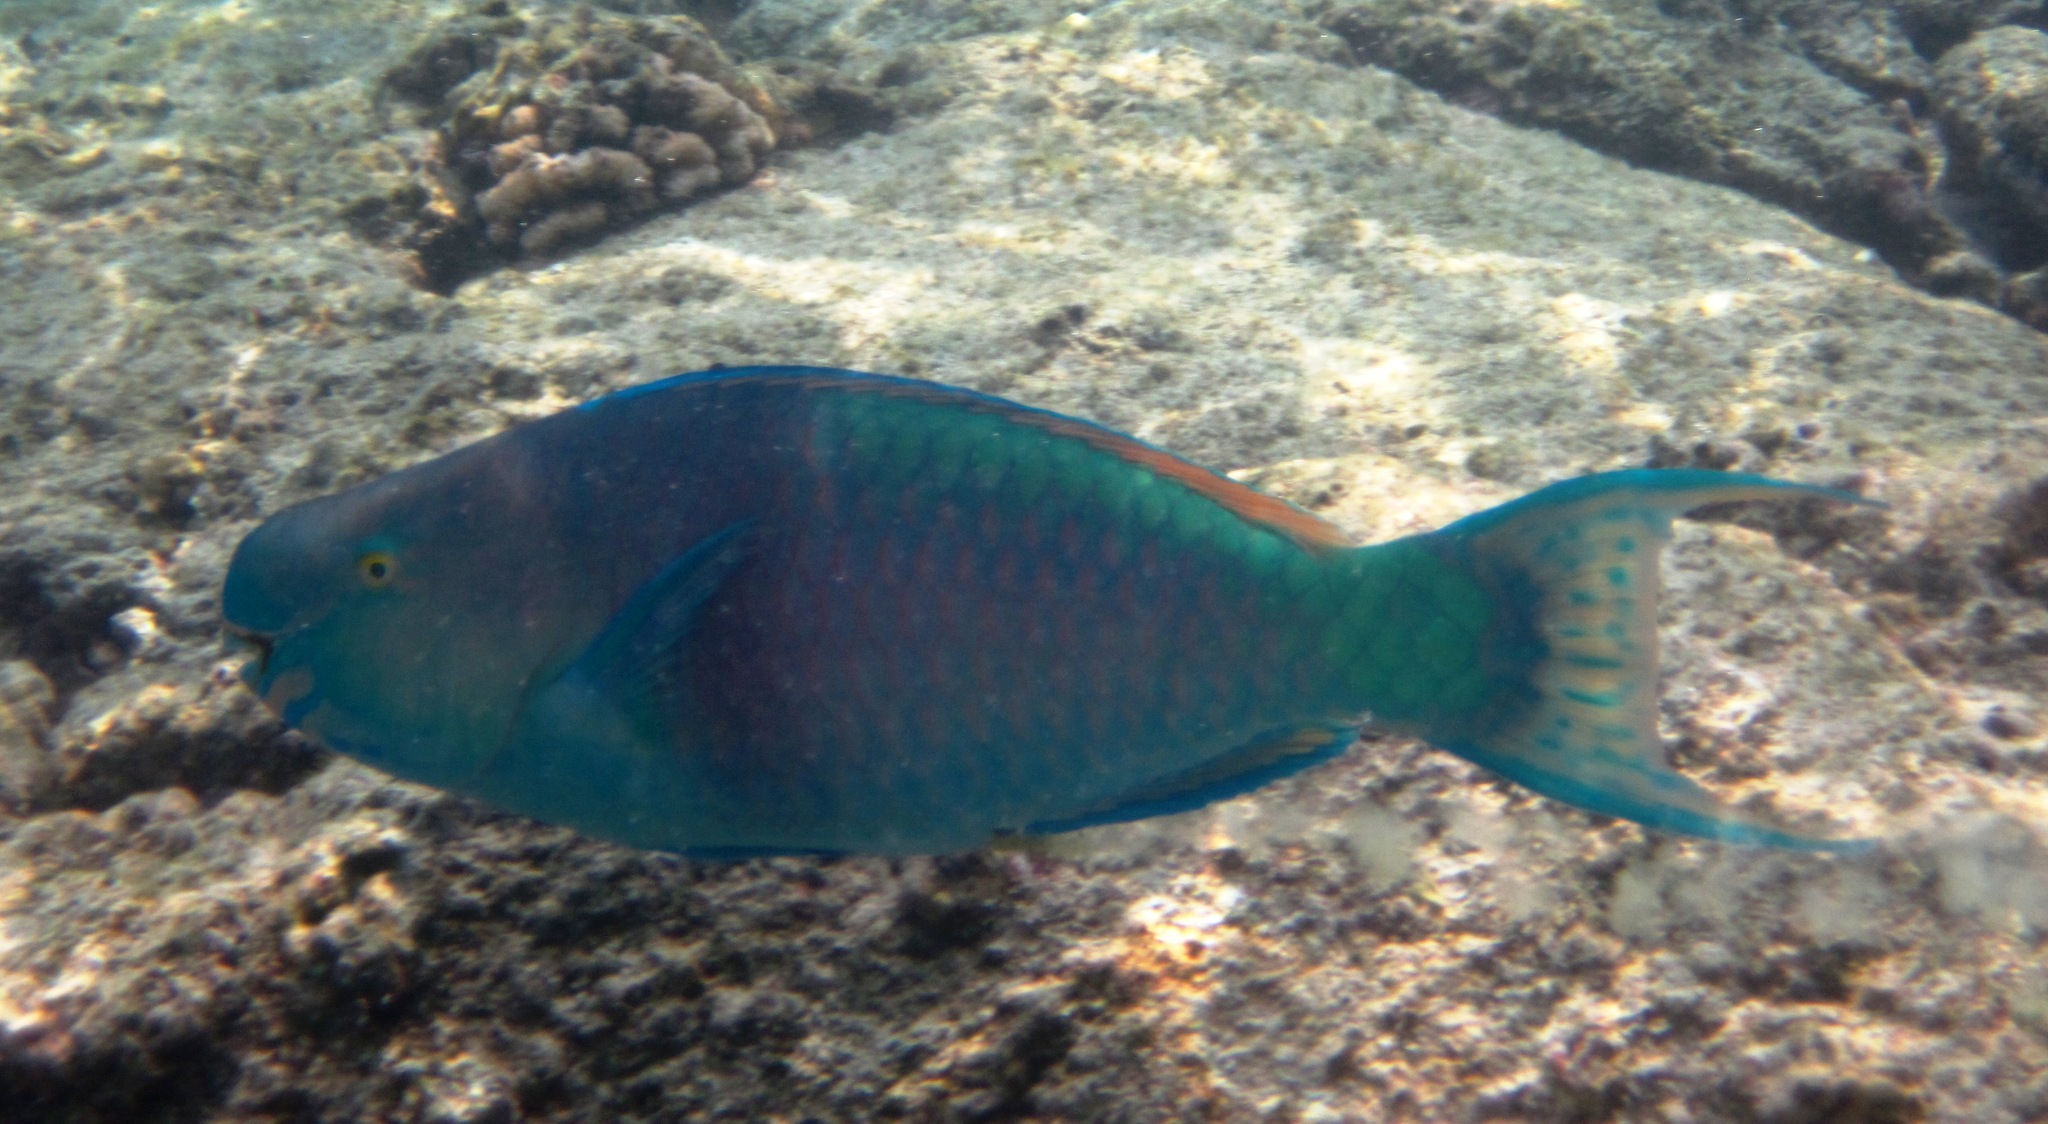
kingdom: Animalia
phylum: Chordata
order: Perciformes
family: Scaridae
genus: Scarus
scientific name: Scarus rubroviolaceus
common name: Ember parrotfish
